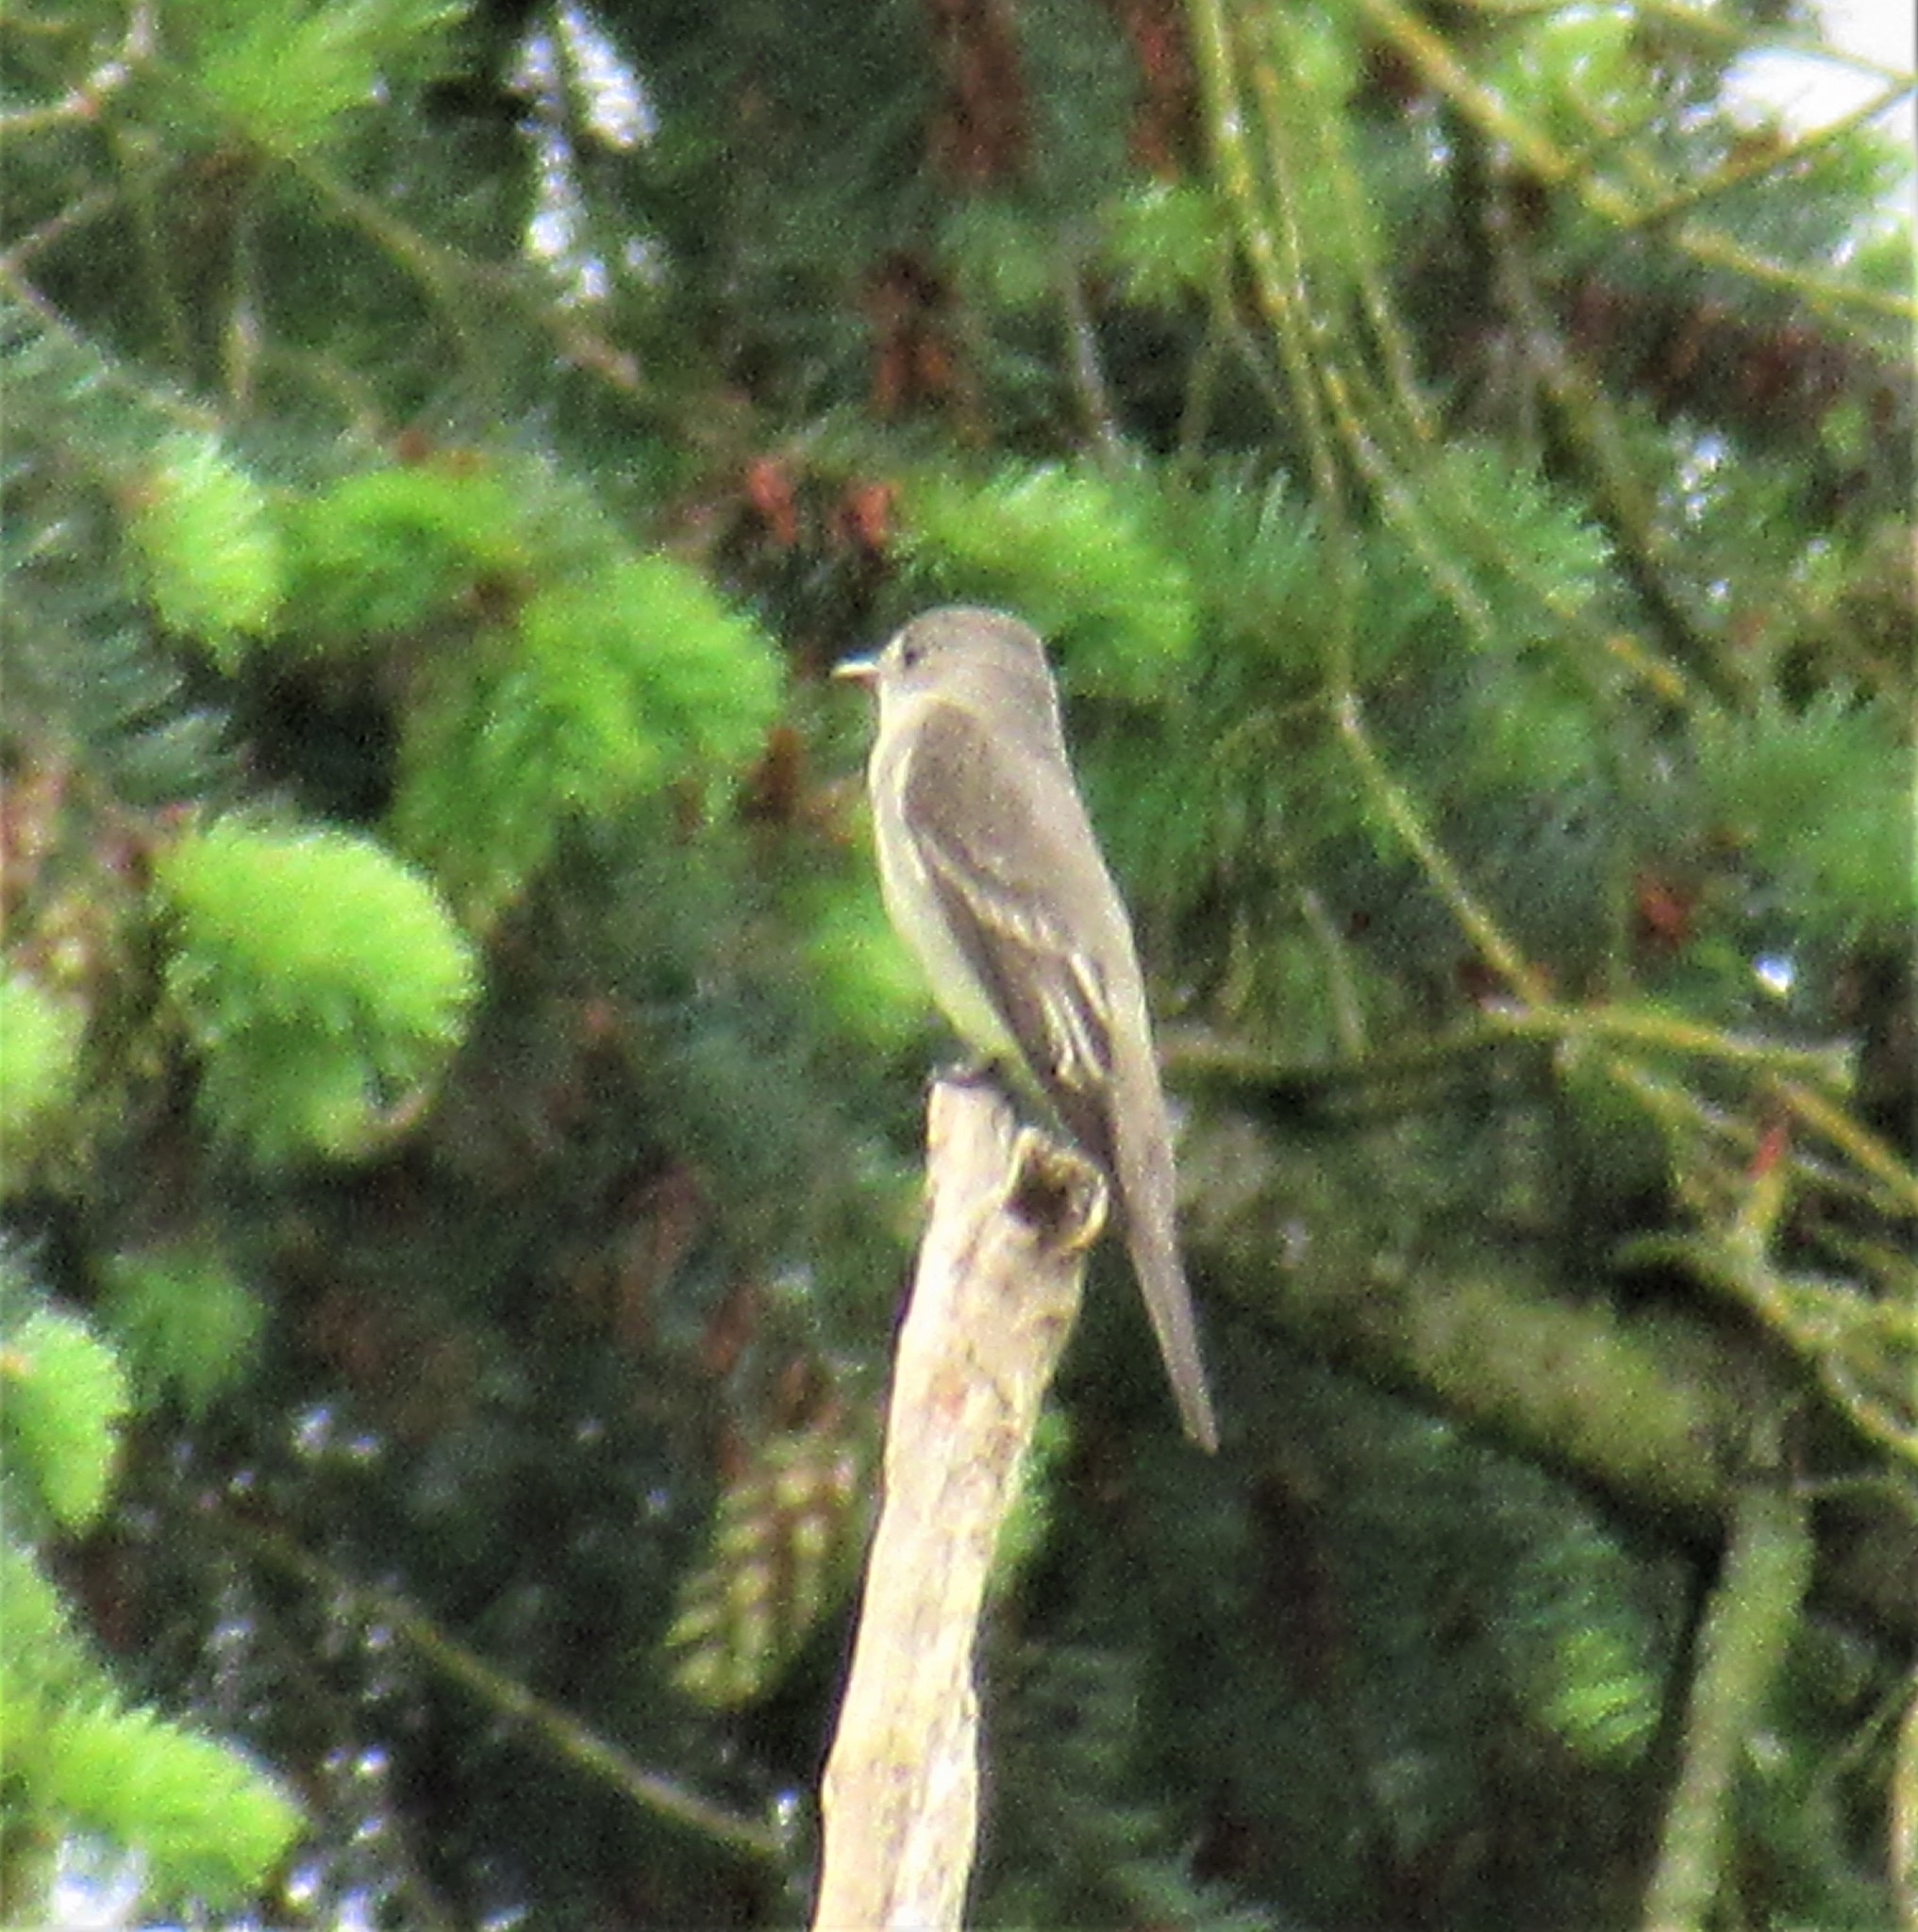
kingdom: Animalia
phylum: Chordata
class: Aves
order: Passeriformes
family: Tyrannidae
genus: Contopus
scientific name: Contopus sordidulus
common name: Western wood-pewee
